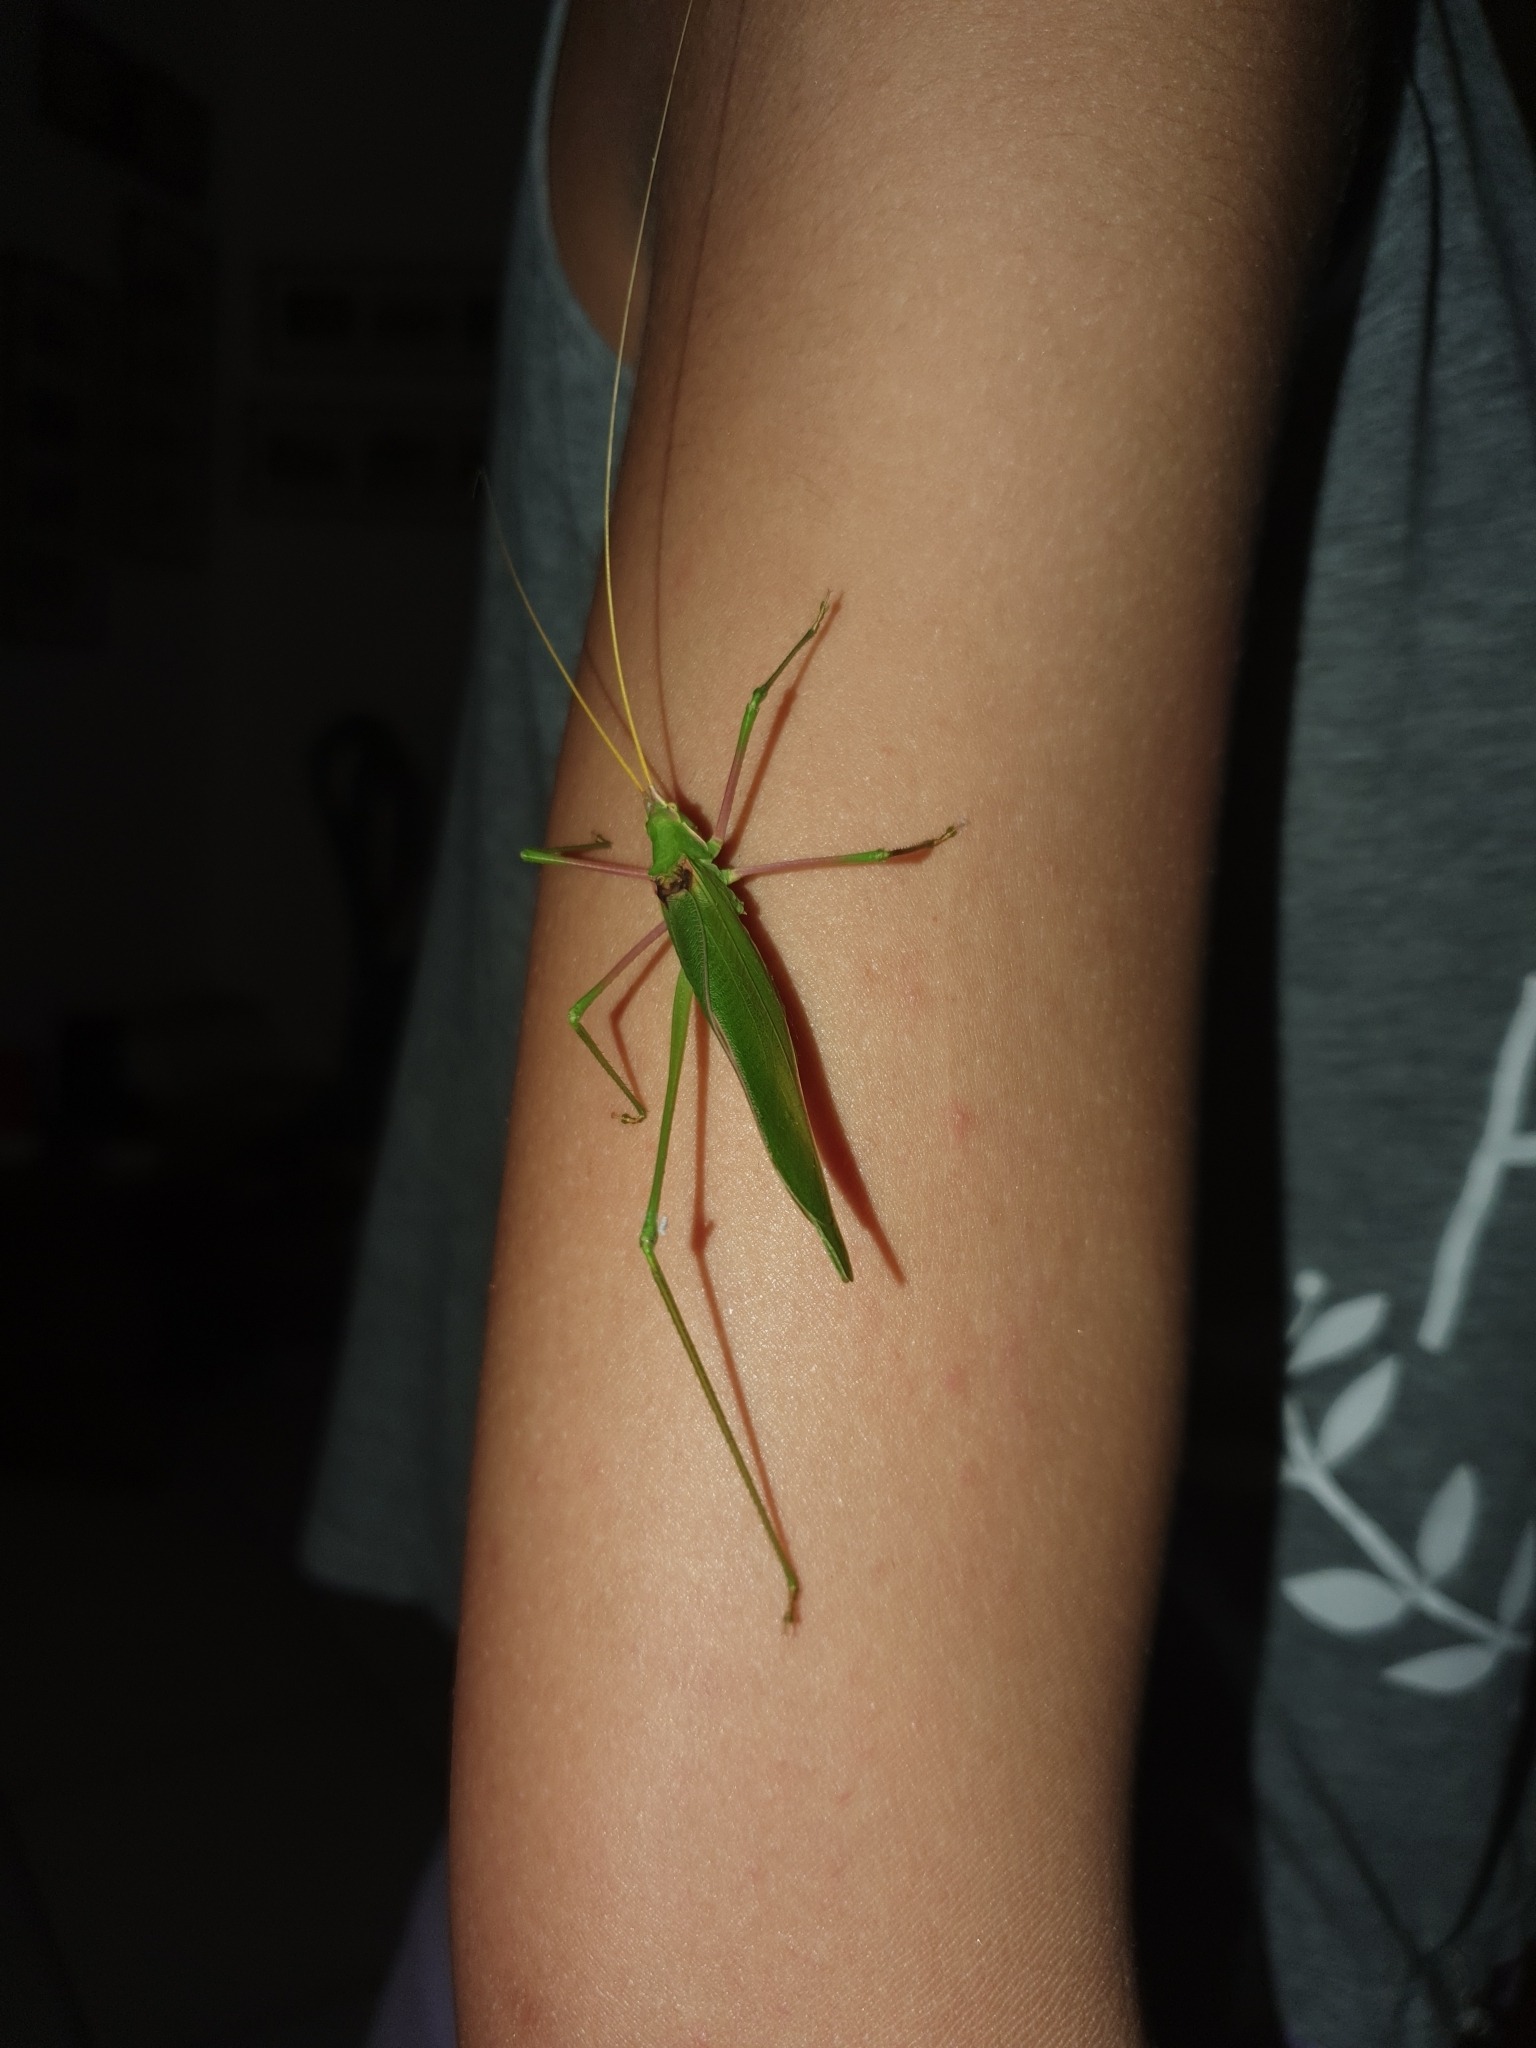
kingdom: Animalia
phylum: Arthropoda
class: Insecta
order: Orthoptera
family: Tettigoniidae
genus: Acrometopa
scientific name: Acrometopa italica
